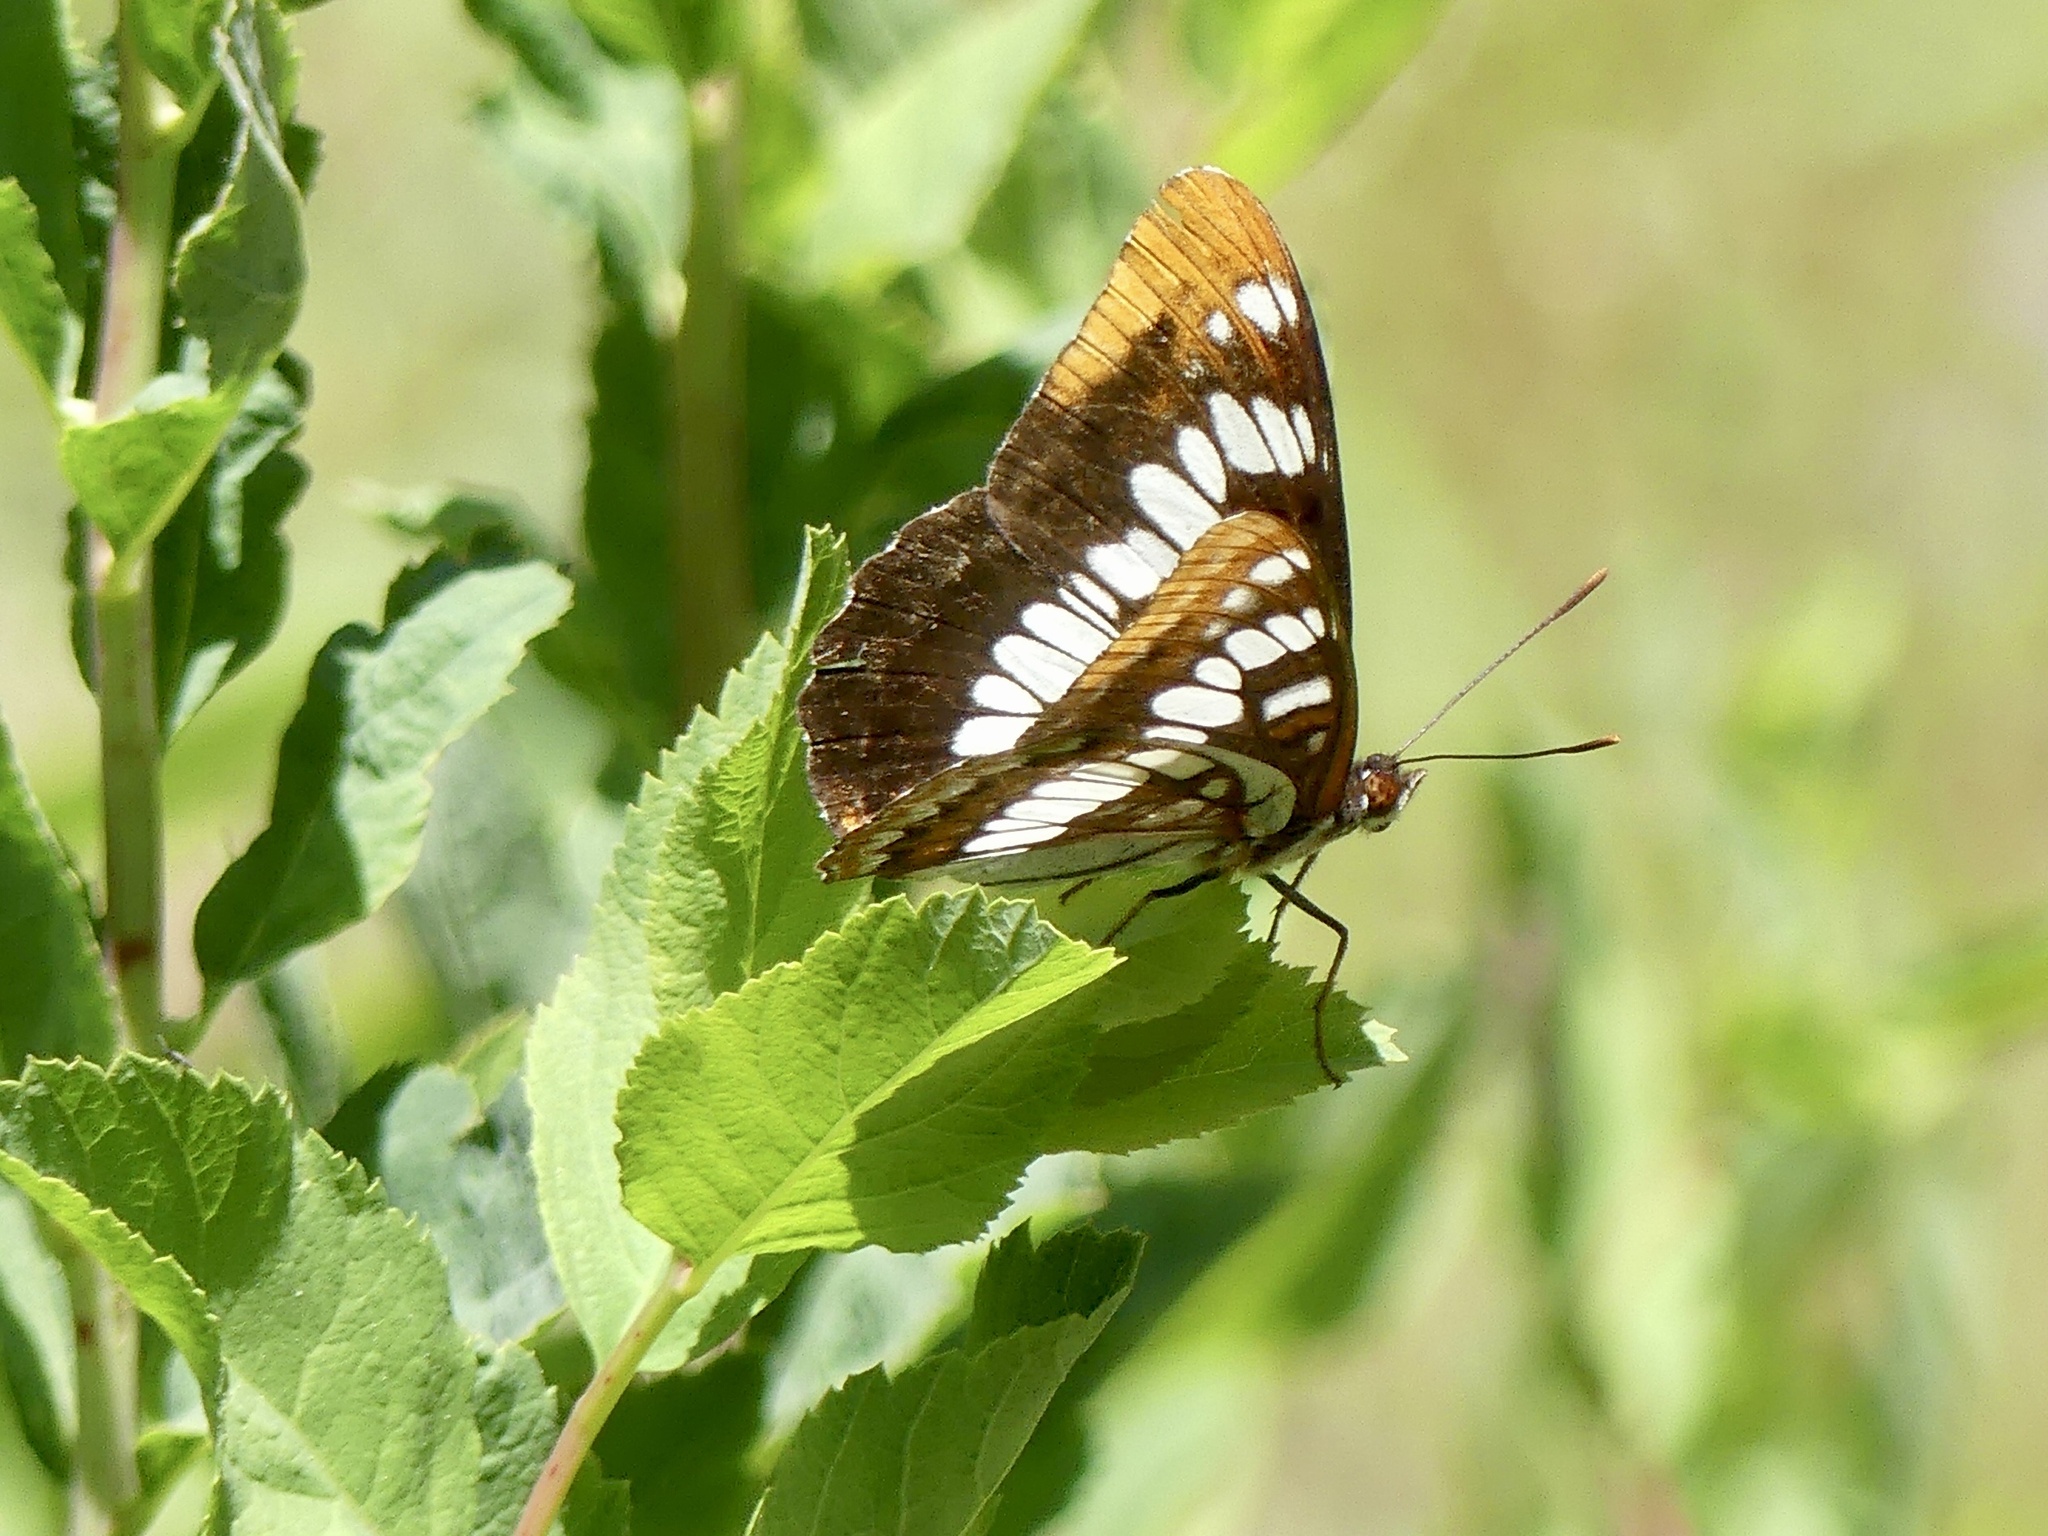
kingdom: Animalia
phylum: Arthropoda
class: Insecta
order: Lepidoptera
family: Nymphalidae
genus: Limenitis
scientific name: Limenitis lorquini
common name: Lorquin's admiral
